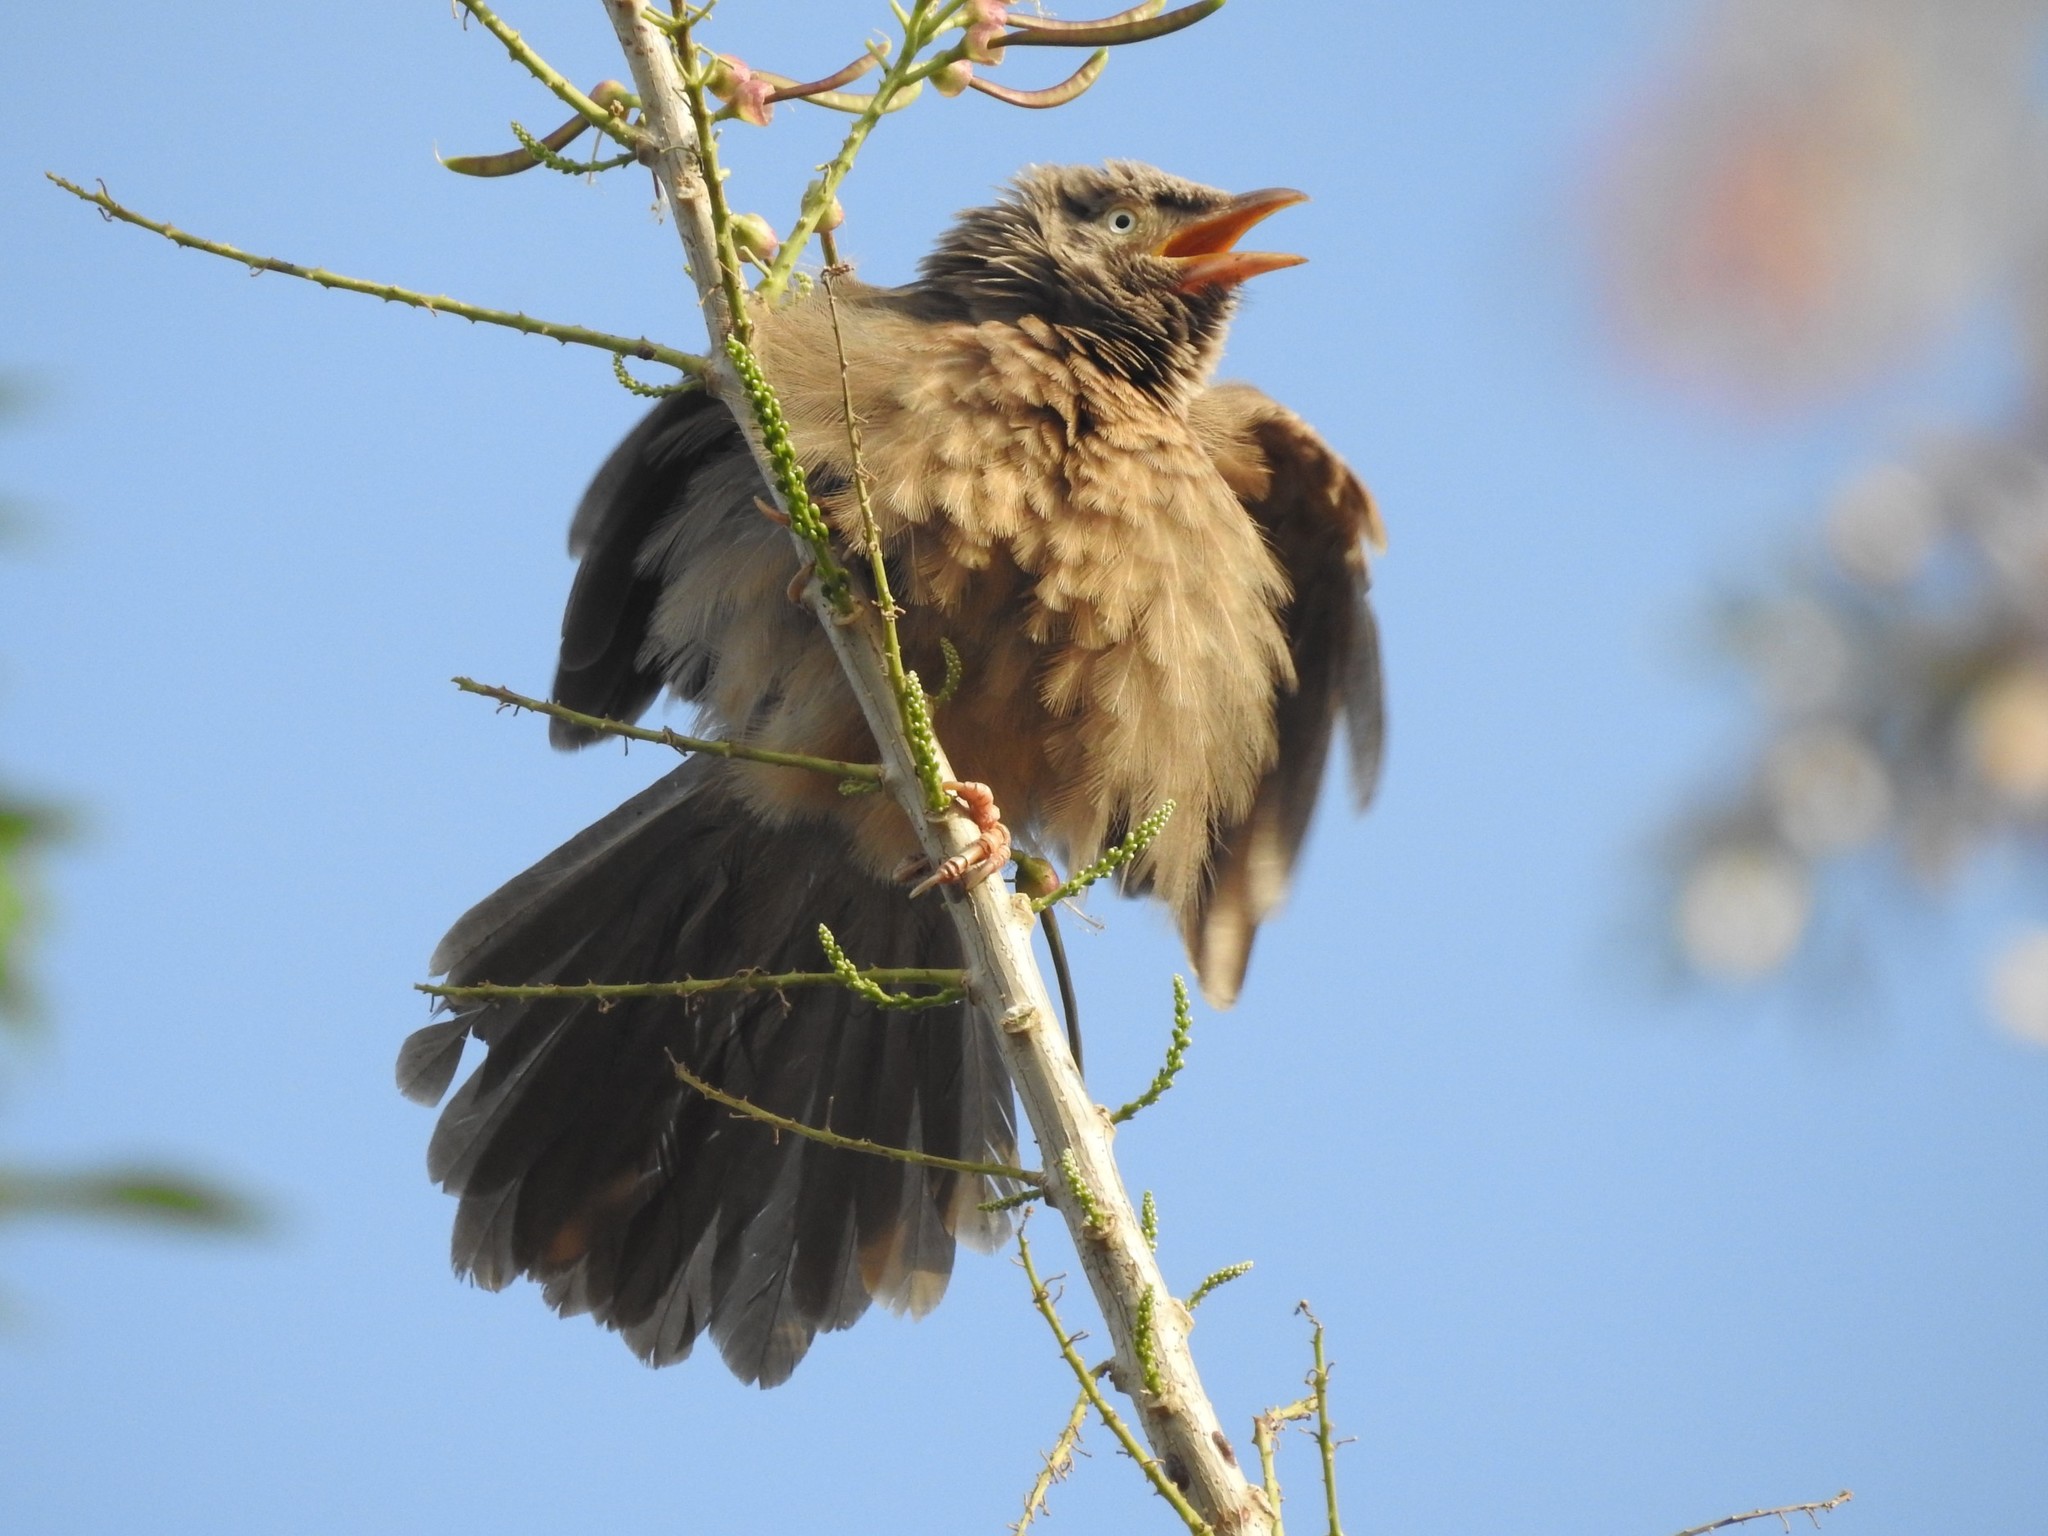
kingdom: Animalia
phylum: Chordata
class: Aves
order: Passeriformes
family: Leiothrichidae
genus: Turdoides
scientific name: Turdoides striata
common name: Jungle babbler
